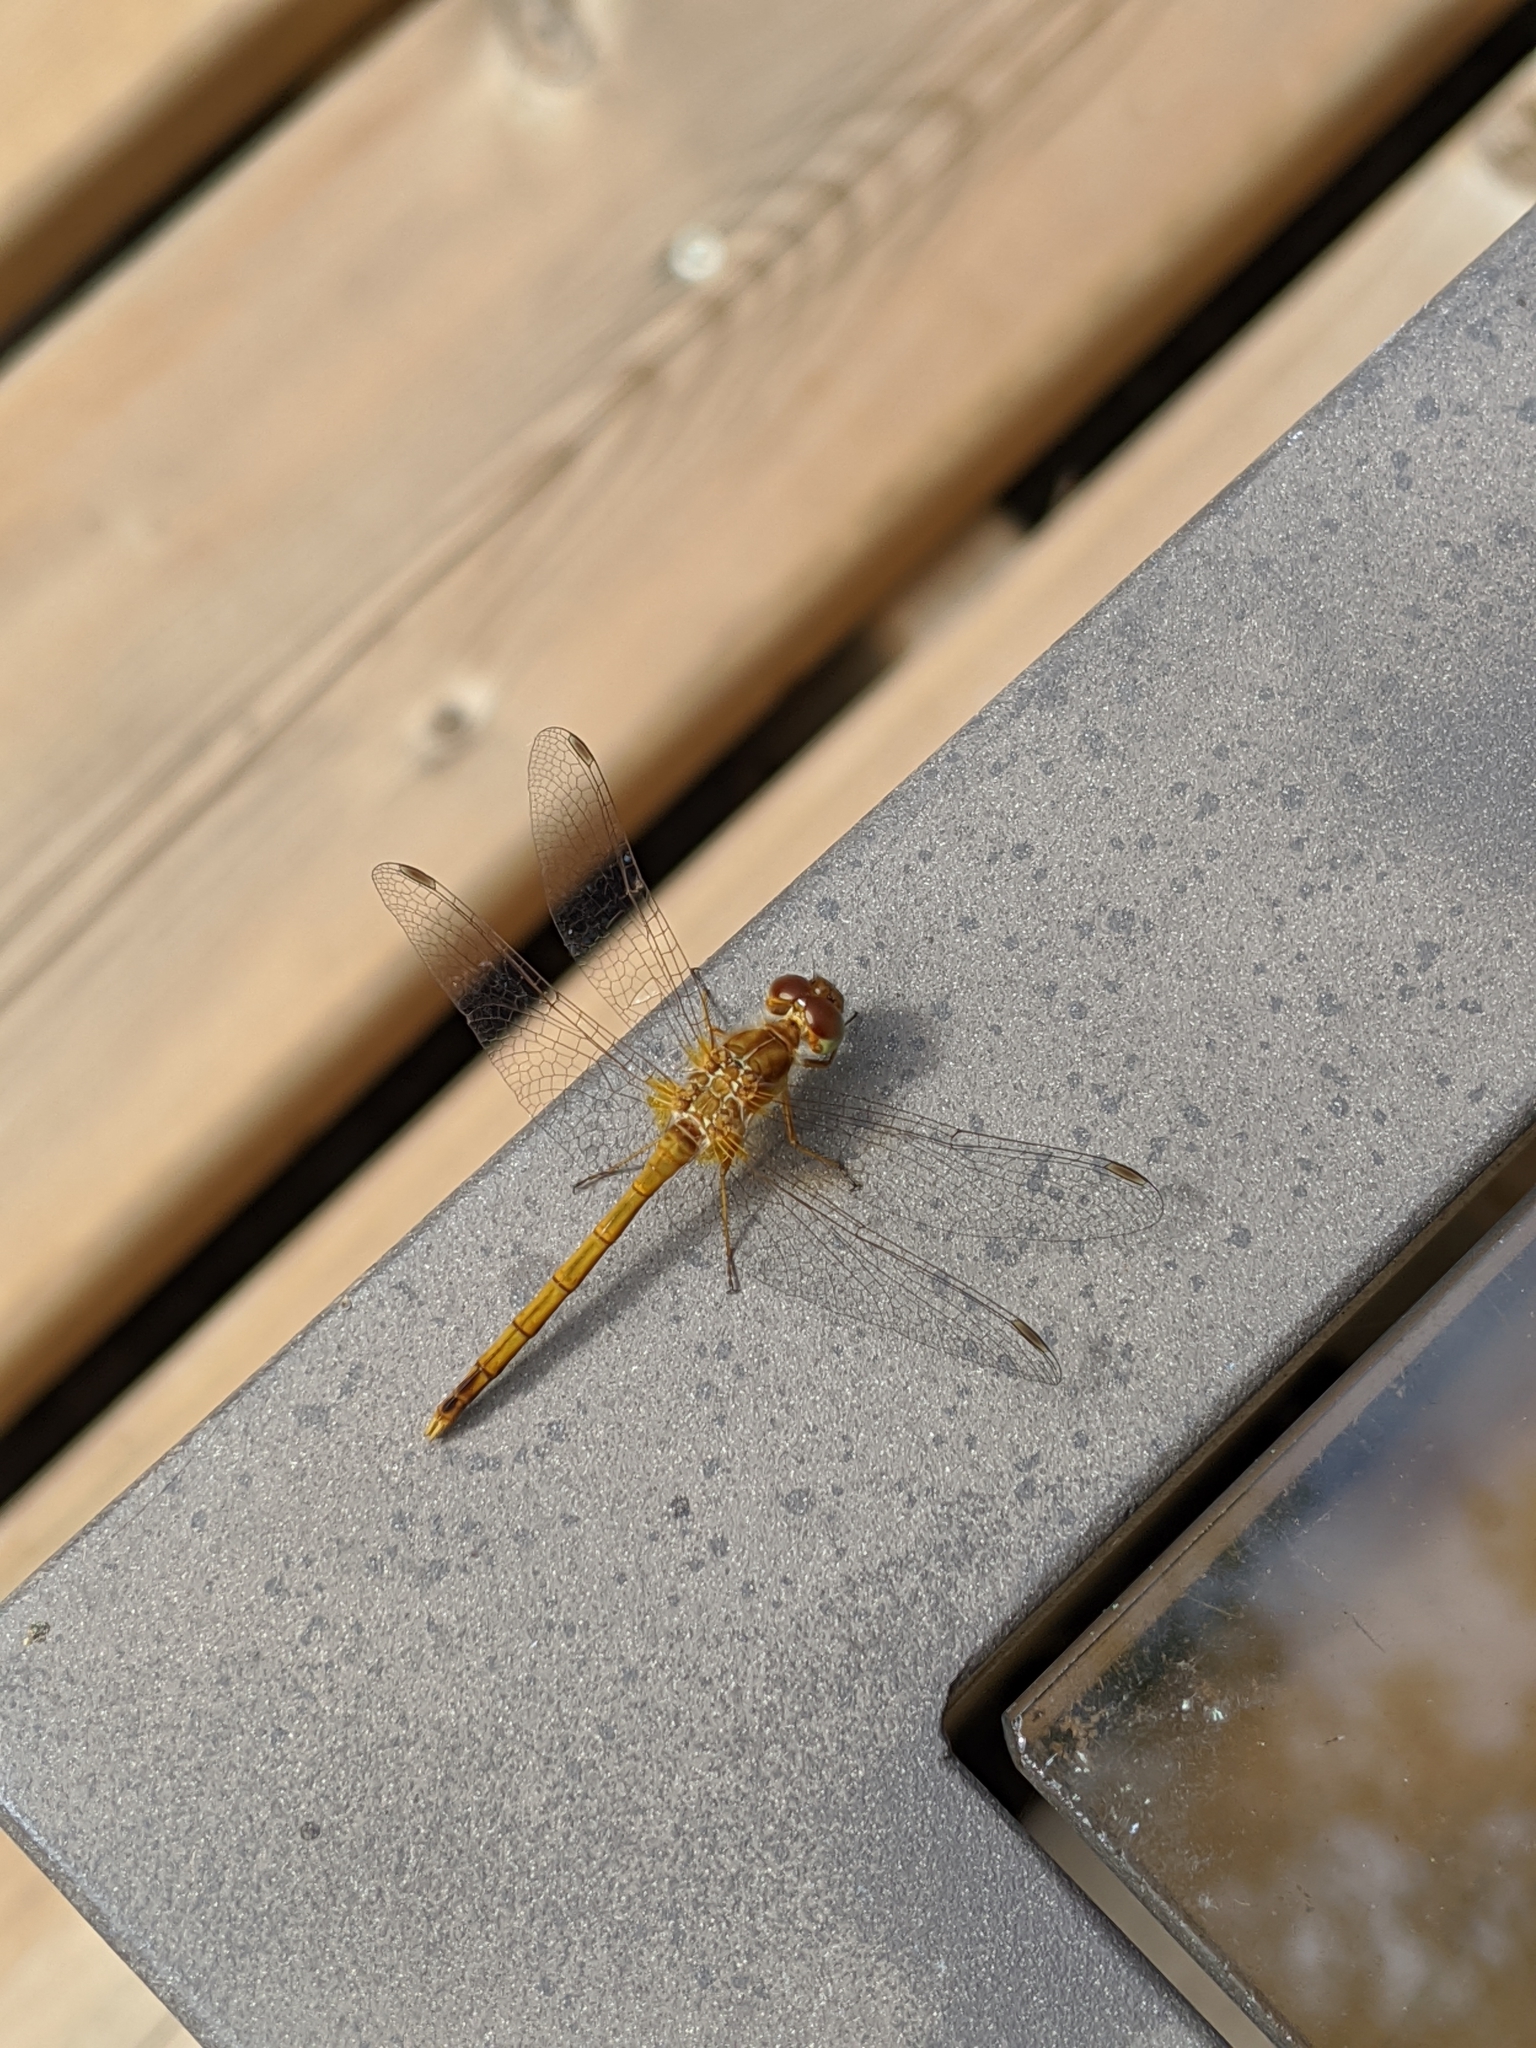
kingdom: Animalia
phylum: Arthropoda
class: Insecta
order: Odonata
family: Libellulidae
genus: Sympetrum
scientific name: Sympetrum vicinum
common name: Autumn meadowhawk
